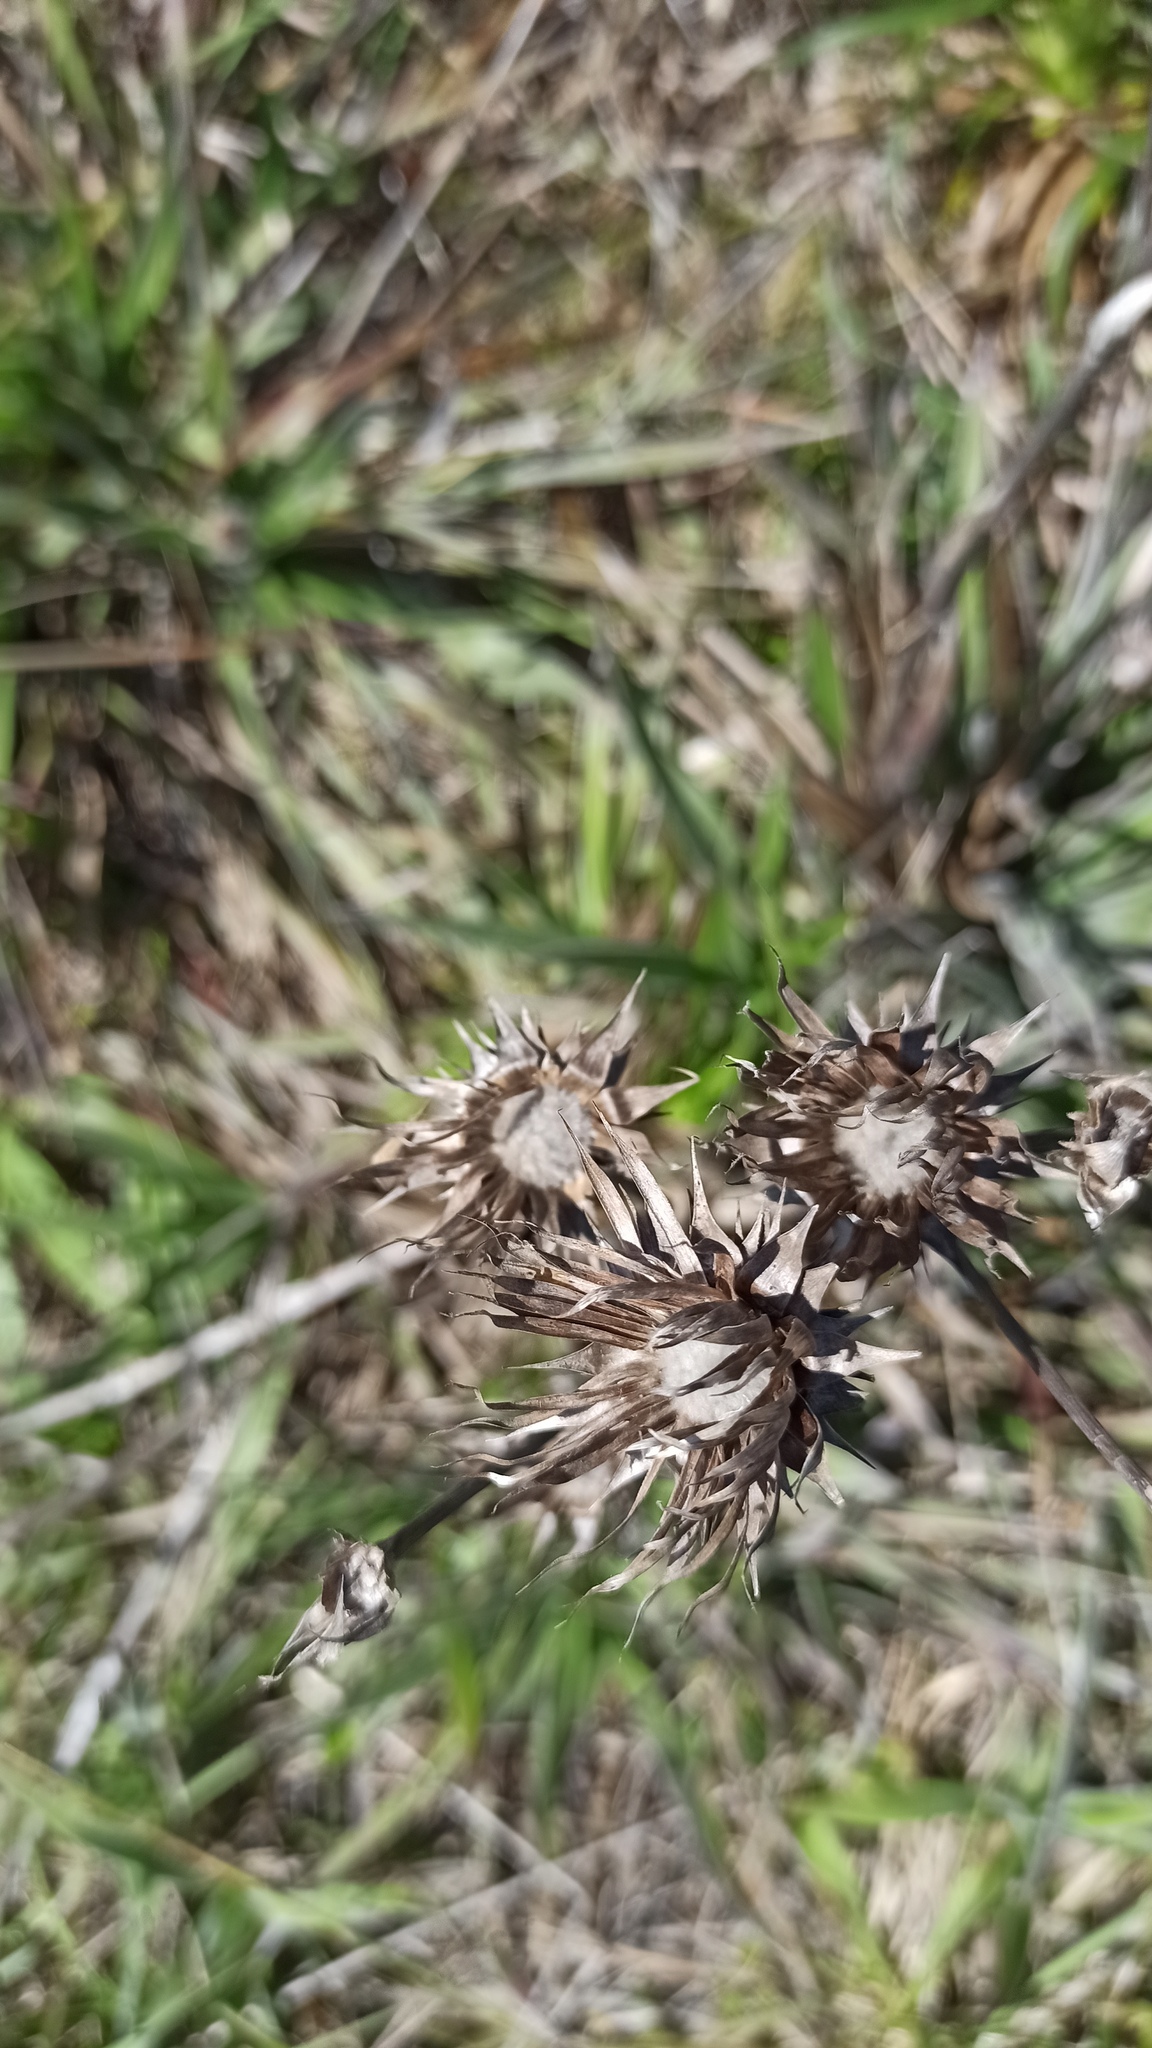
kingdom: Plantae
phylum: Tracheophyta
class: Magnoliopsida
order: Asterales
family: Asteraceae
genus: Schlechtendalia
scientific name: Schlechtendalia luzulifolia
